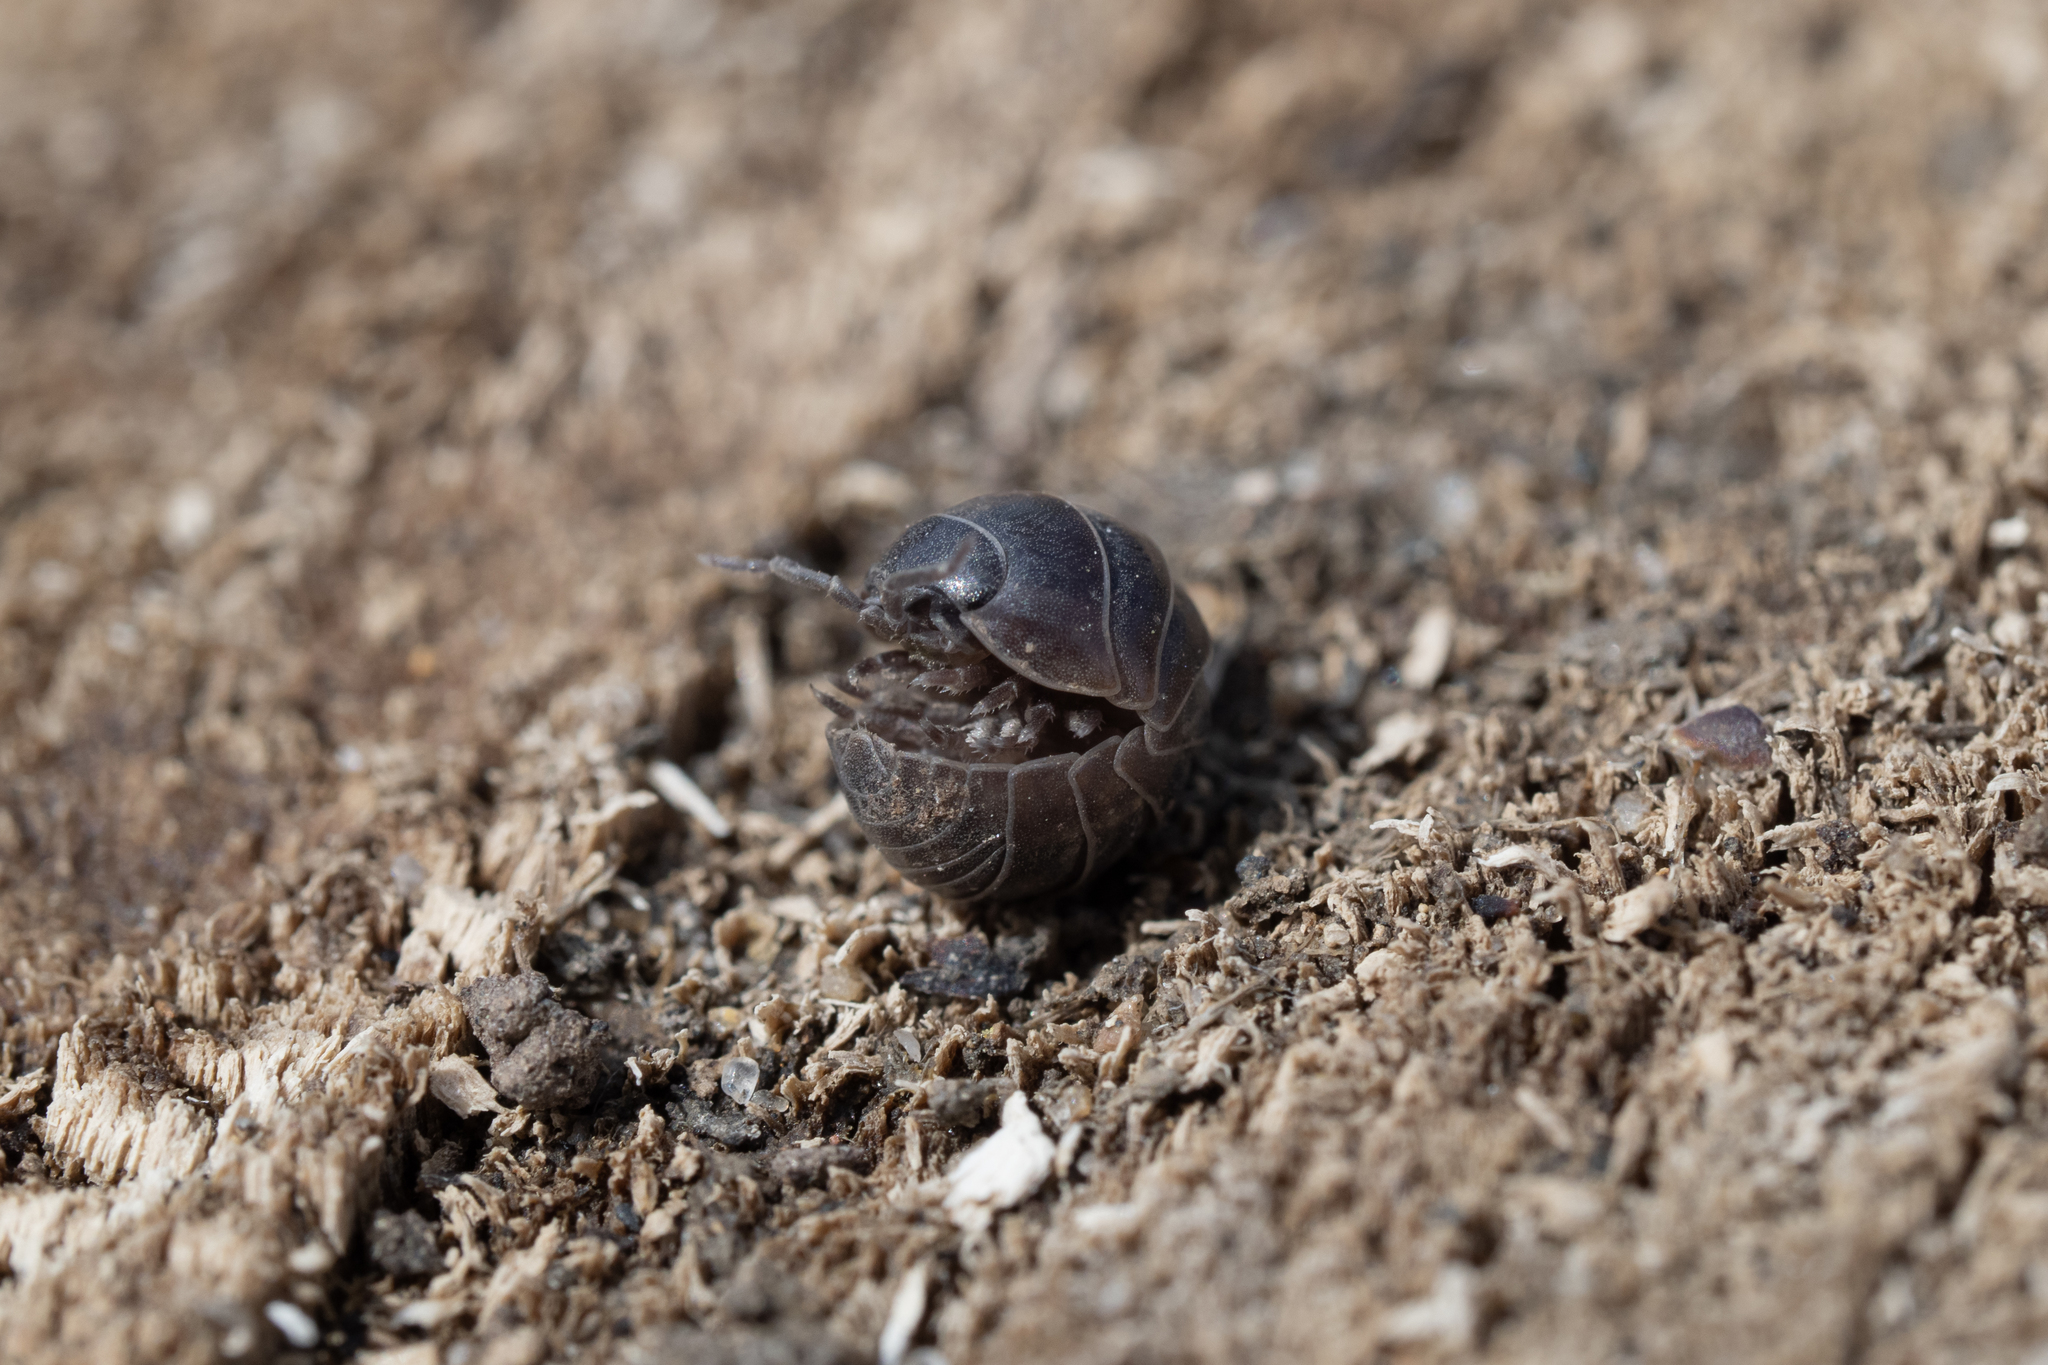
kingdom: Animalia
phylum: Arthropoda
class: Malacostraca
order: Isopoda
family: Armadillidiidae
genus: Armadillidium
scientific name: Armadillidium vulgare
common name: Common pill woodlouse
